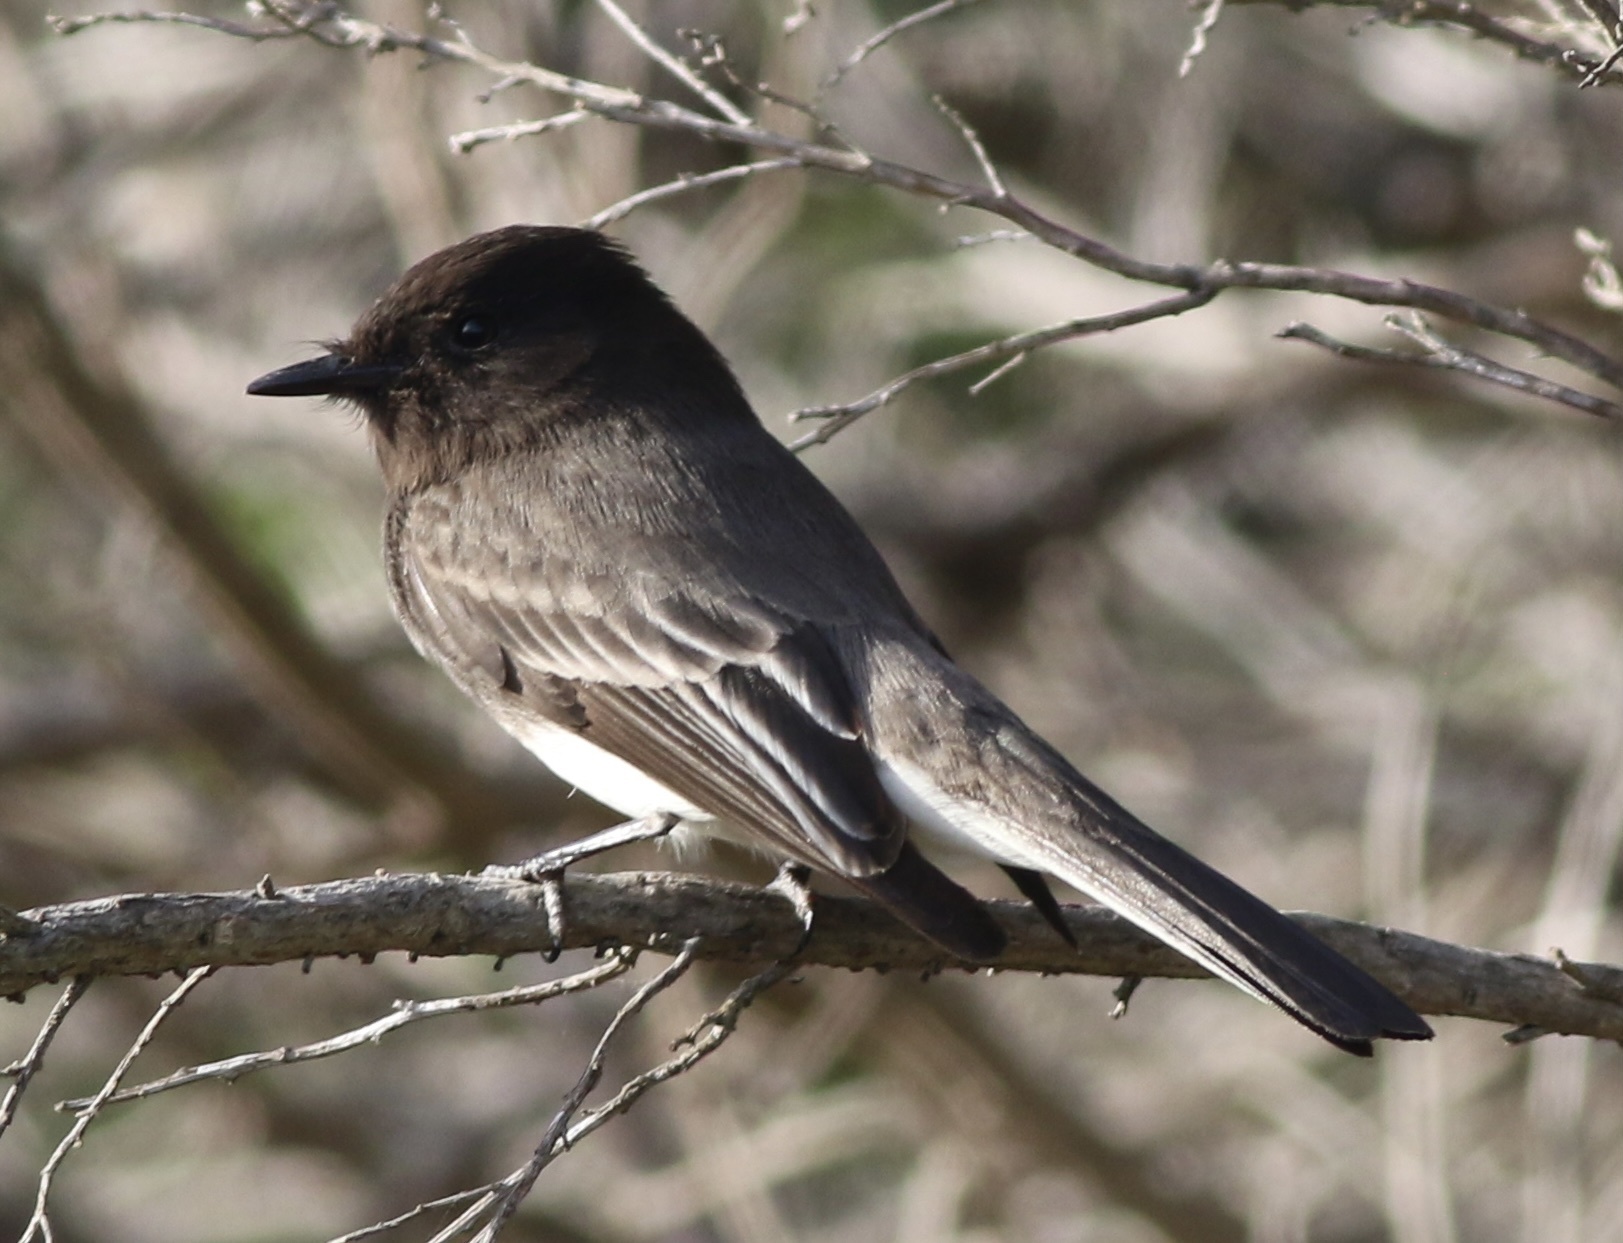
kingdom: Animalia
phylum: Chordata
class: Aves
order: Passeriformes
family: Tyrannidae
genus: Sayornis
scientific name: Sayornis nigricans
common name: Black phoebe
